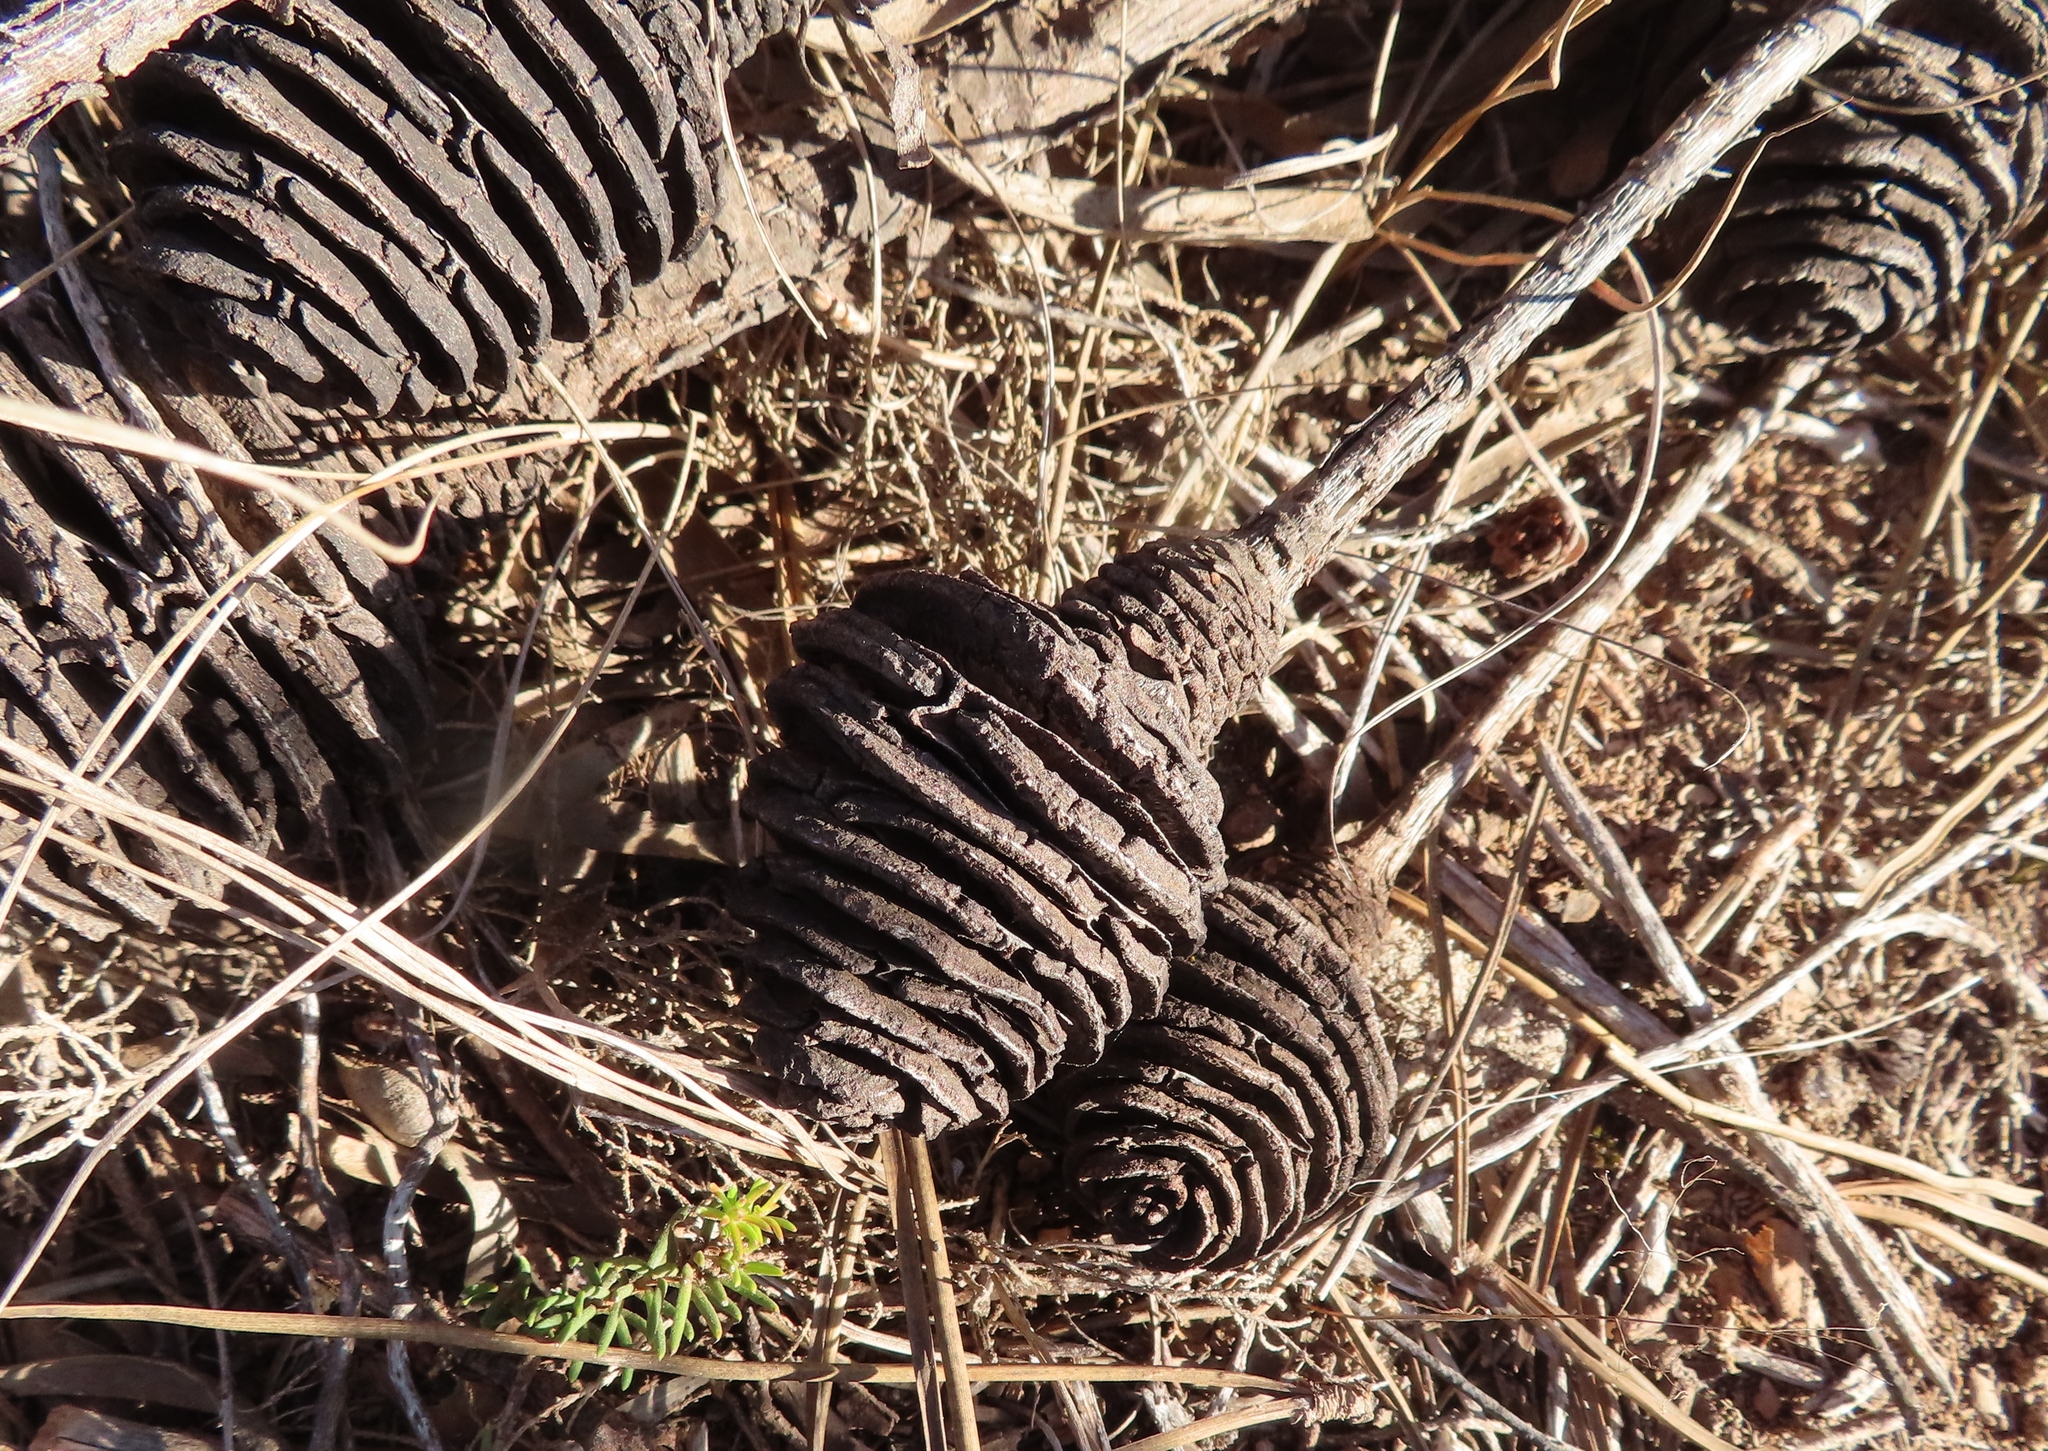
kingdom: Plantae
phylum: Tracheophyta
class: Magnoliopsida
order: Proteales
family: Proteaceae
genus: Leucadendron
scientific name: Leucadendron platyspermum
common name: Plate-seed conebush
